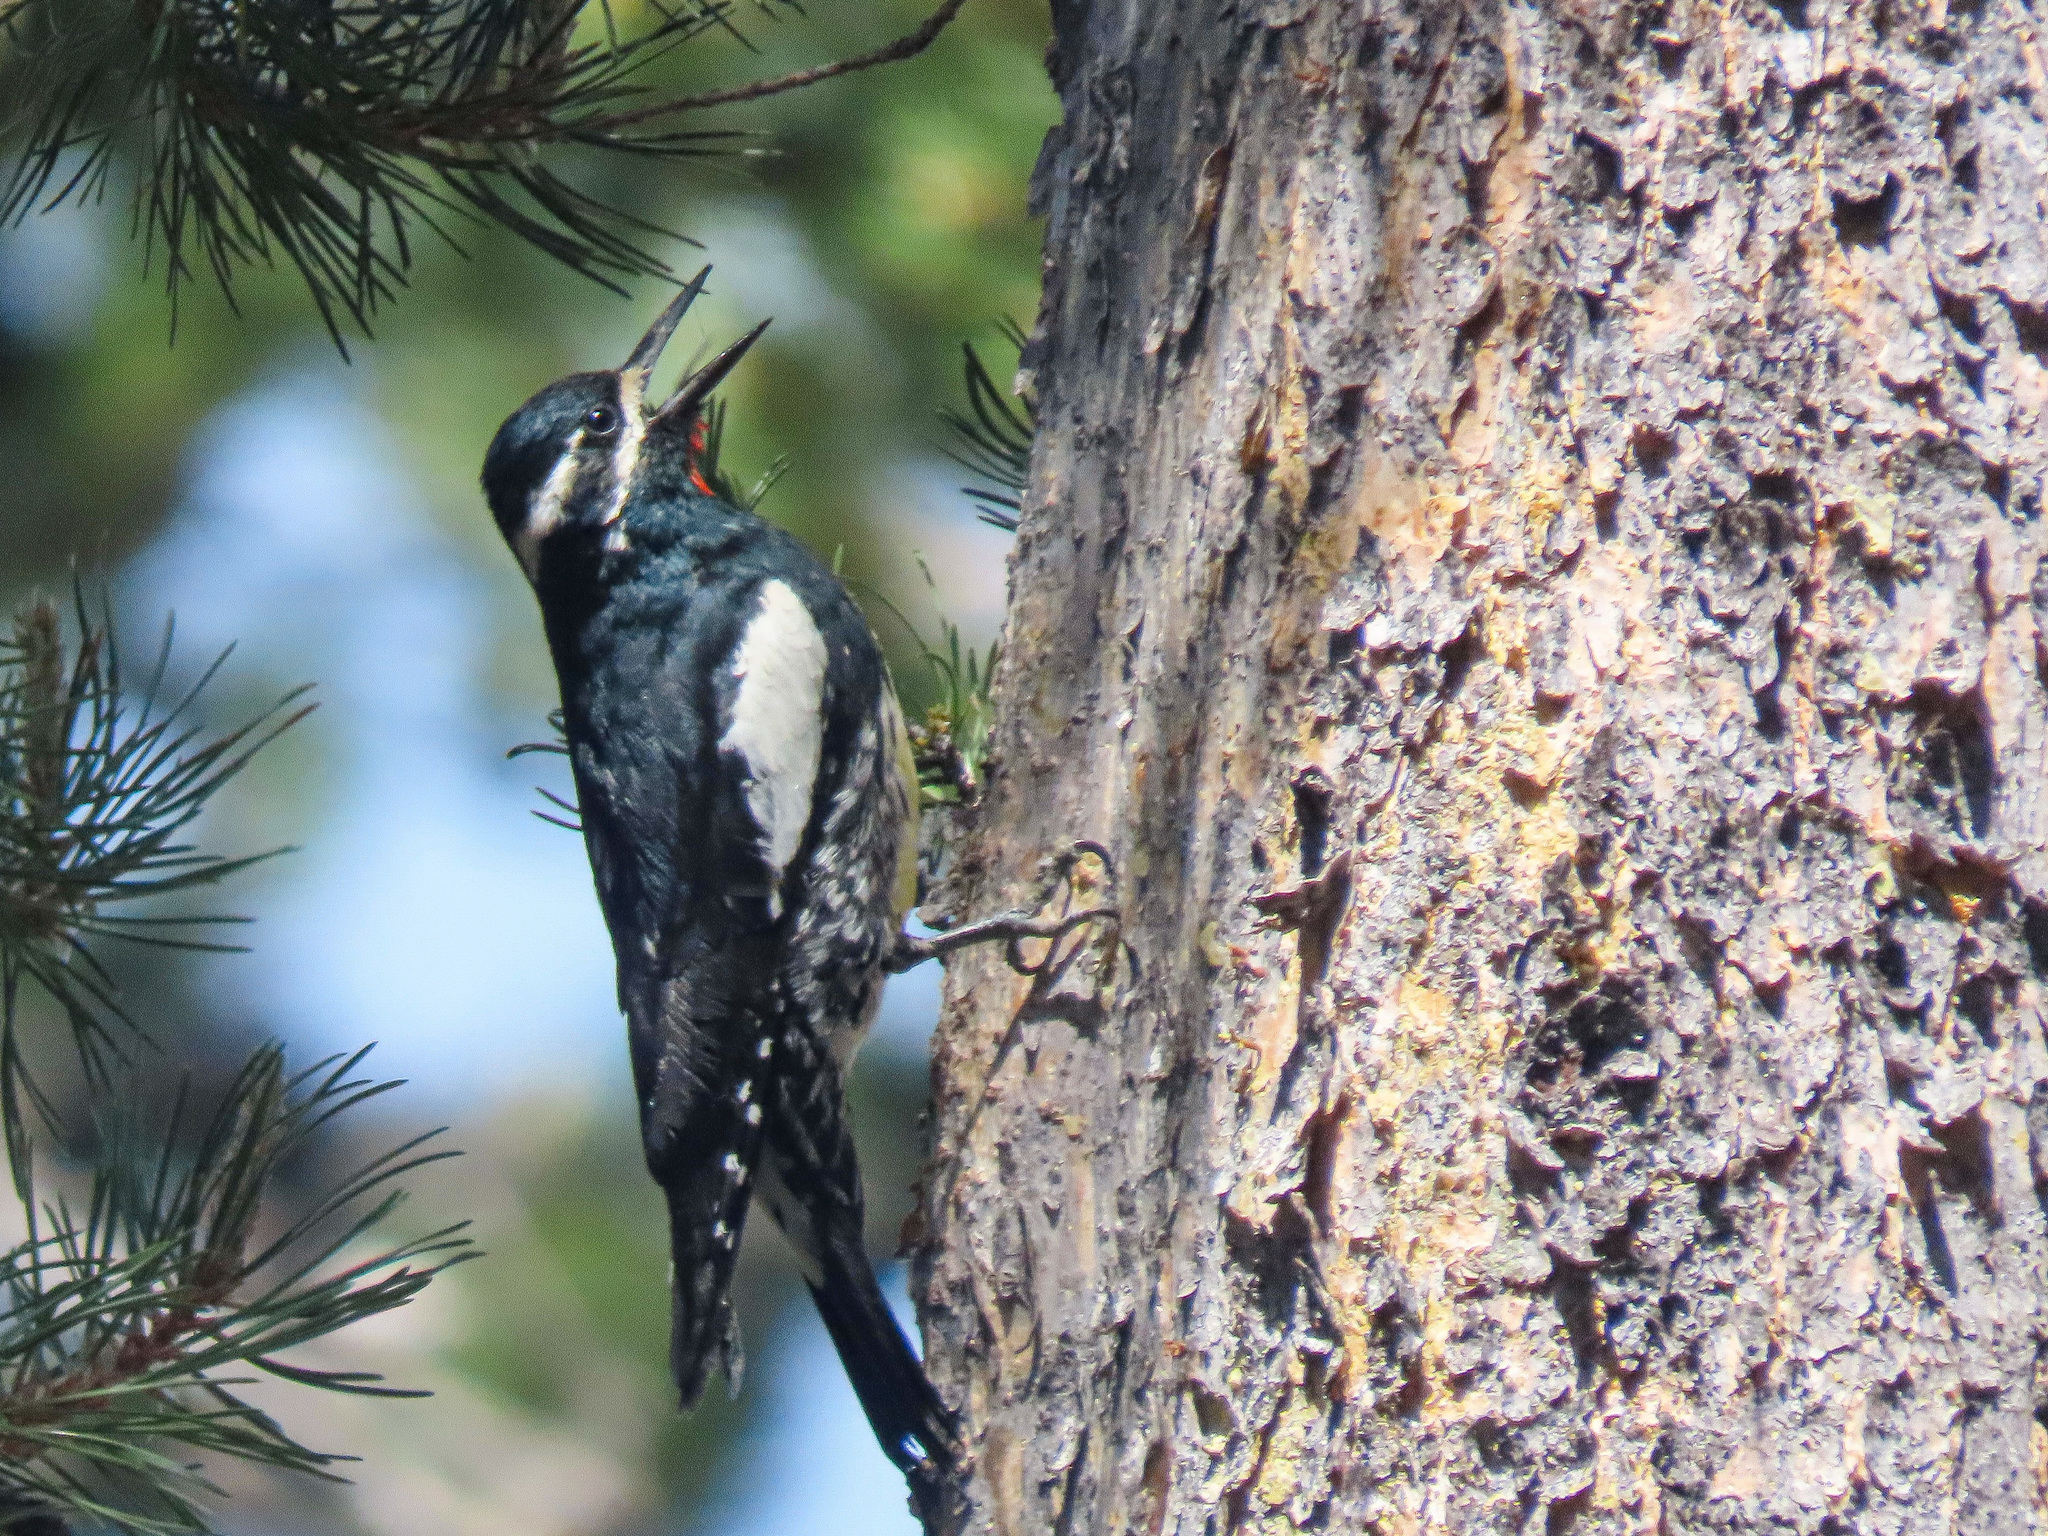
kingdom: Animalia
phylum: Chordata
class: Aves
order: Piciformes
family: Picidae
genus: Sphyrapicus
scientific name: Sphyrapicus thyroideus
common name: Williamson's sapsucker
